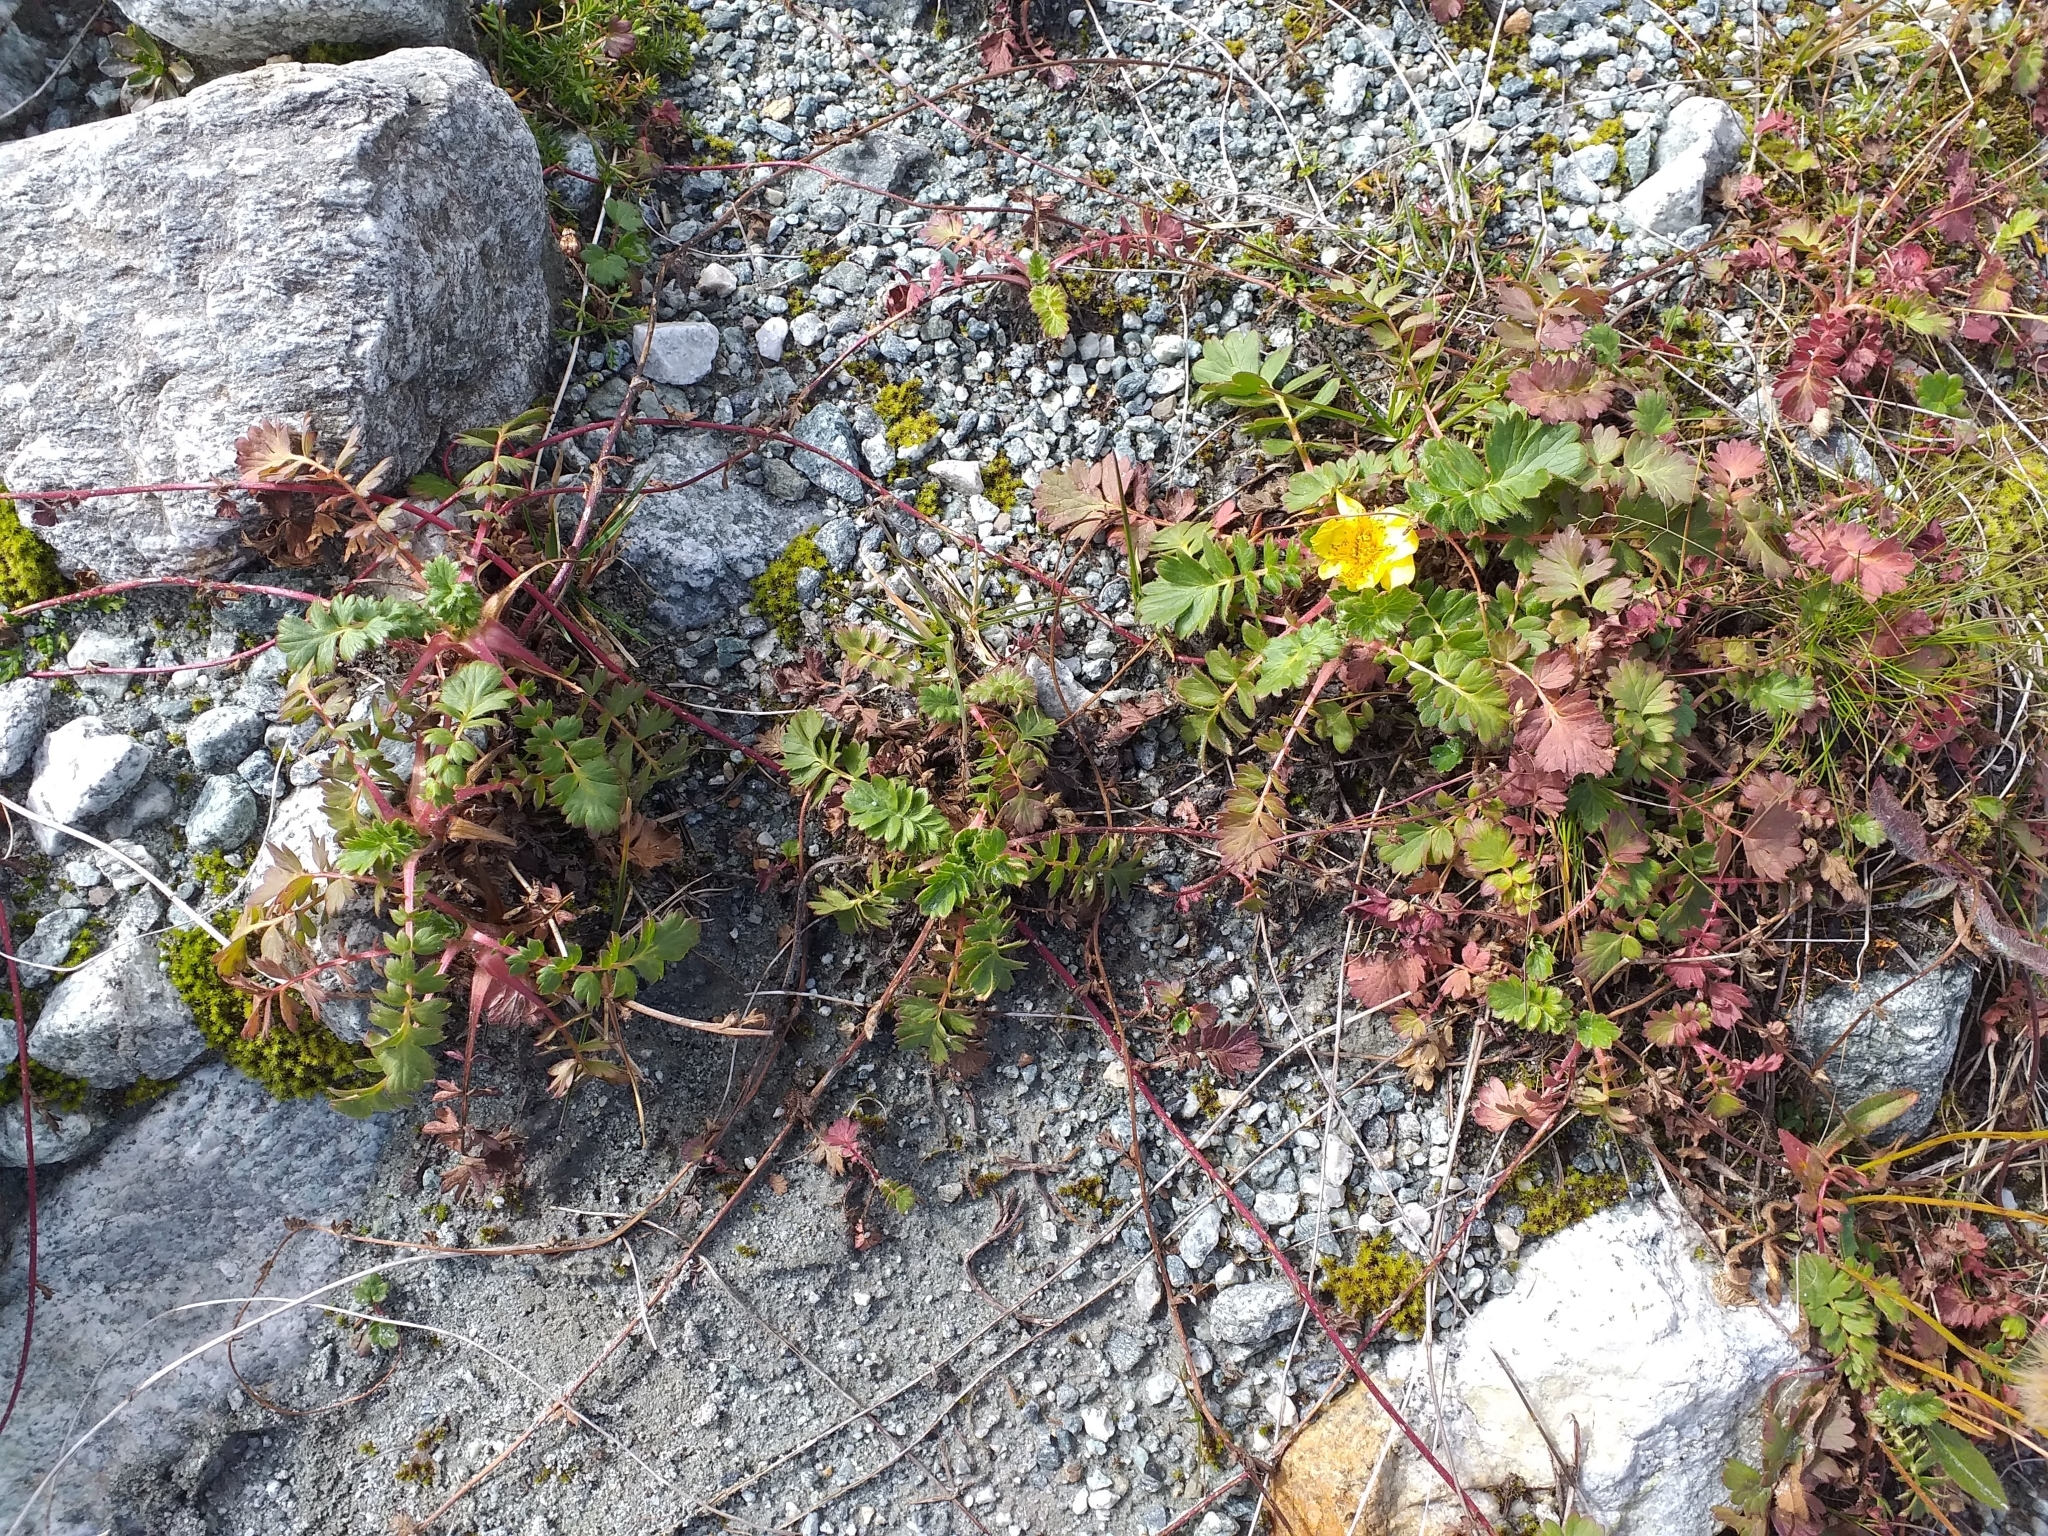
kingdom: Plantae
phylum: Tracheophyta
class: Magnoliopsida
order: Rosales
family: Rosaceae
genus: Geum
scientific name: Geum reptans
